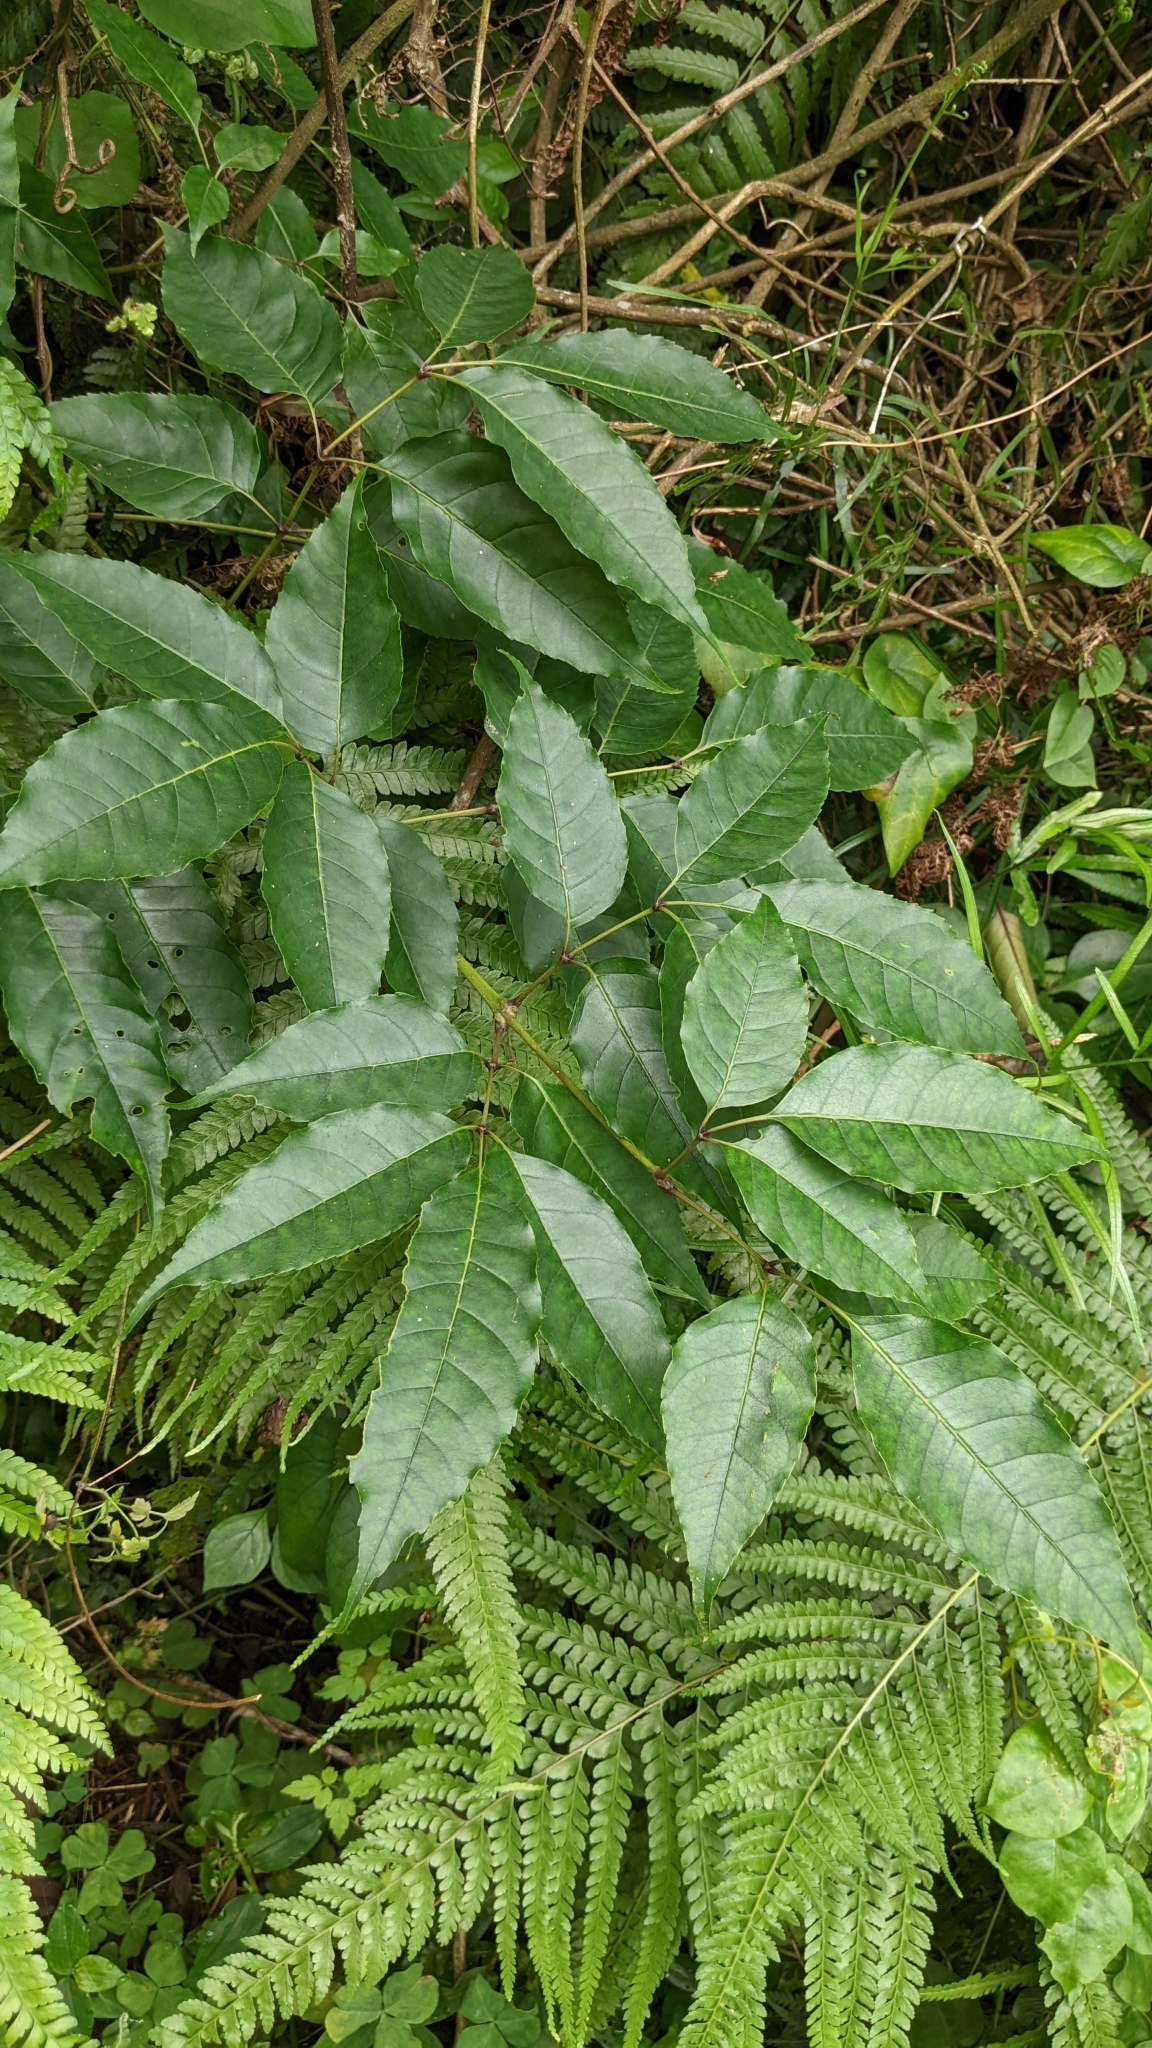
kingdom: Plantae
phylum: Tracheophyta
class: Magnoliopsida
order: Lamiales
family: Oleaceae
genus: Fraxinus
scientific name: Fraxinus insularis
